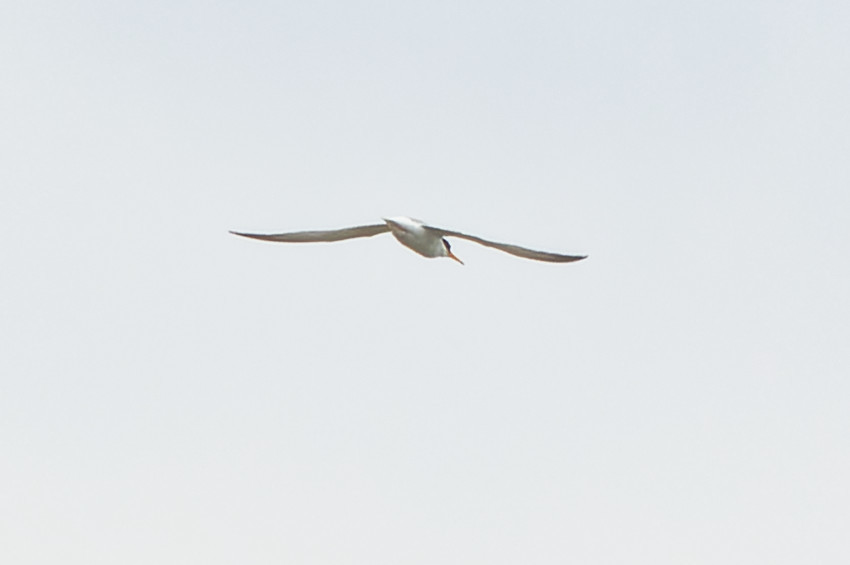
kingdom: Animalia
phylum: Chordata
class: Aves
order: Charadriiformes
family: Laridae
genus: Sternula
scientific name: Sternula albifrons
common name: Little tern
